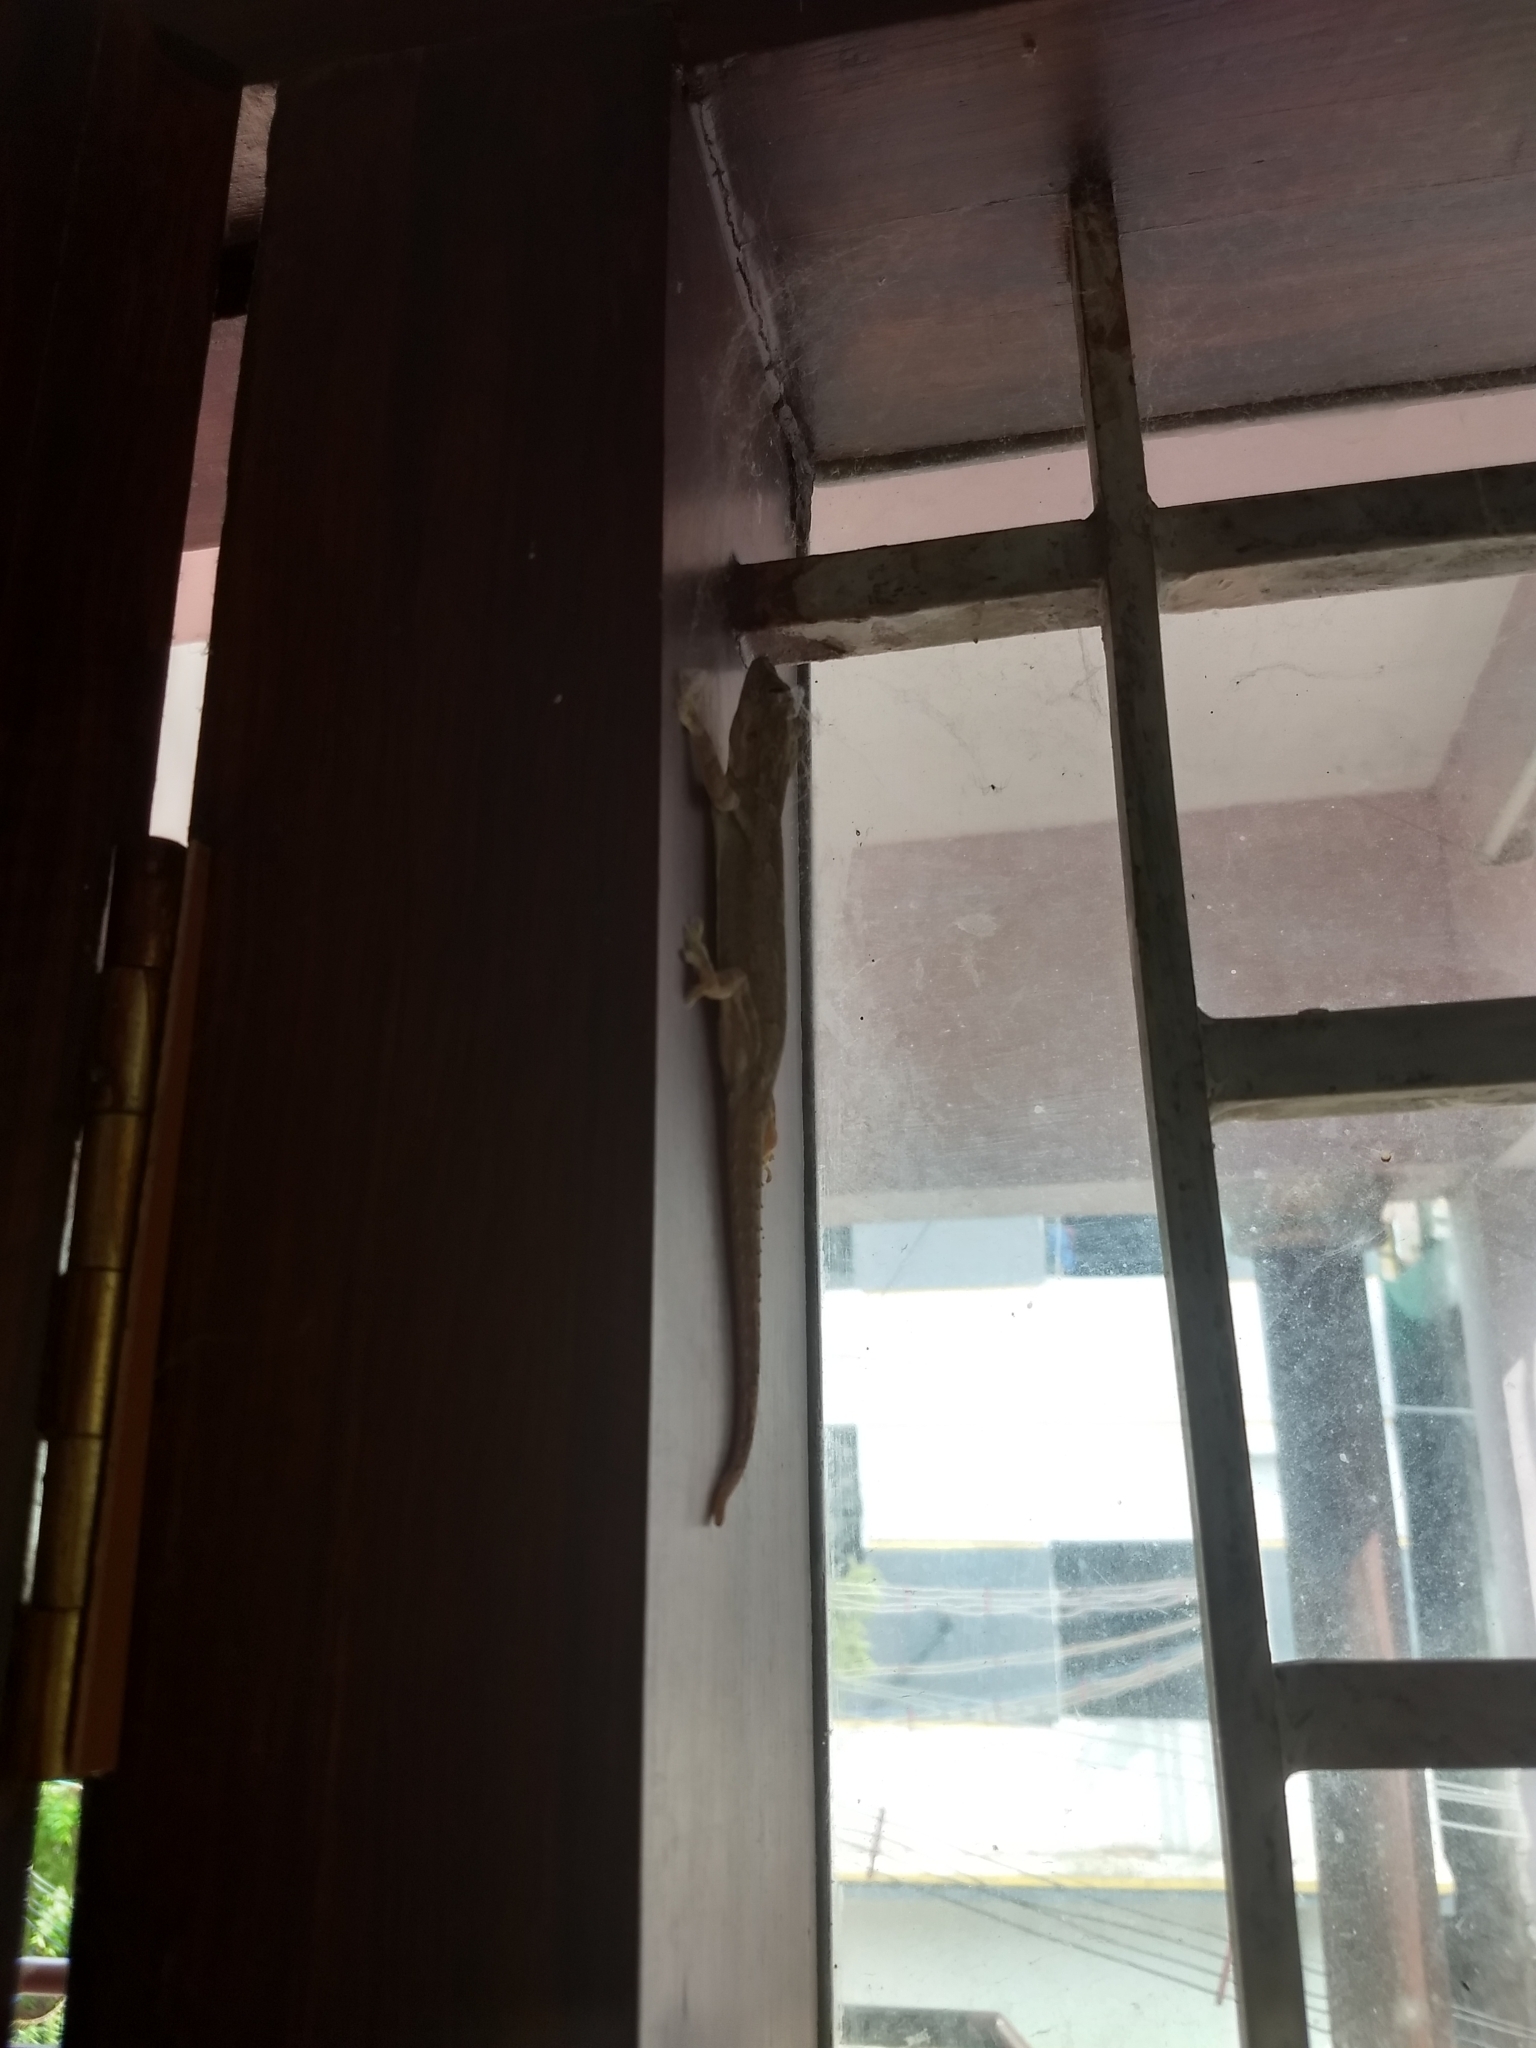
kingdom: Animalia
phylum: Chordata
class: Squamata
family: Gekkonidae
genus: Hemidactylus
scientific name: Hemidactylus leschenaultii
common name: Leschenault's leaf-toed gecko
